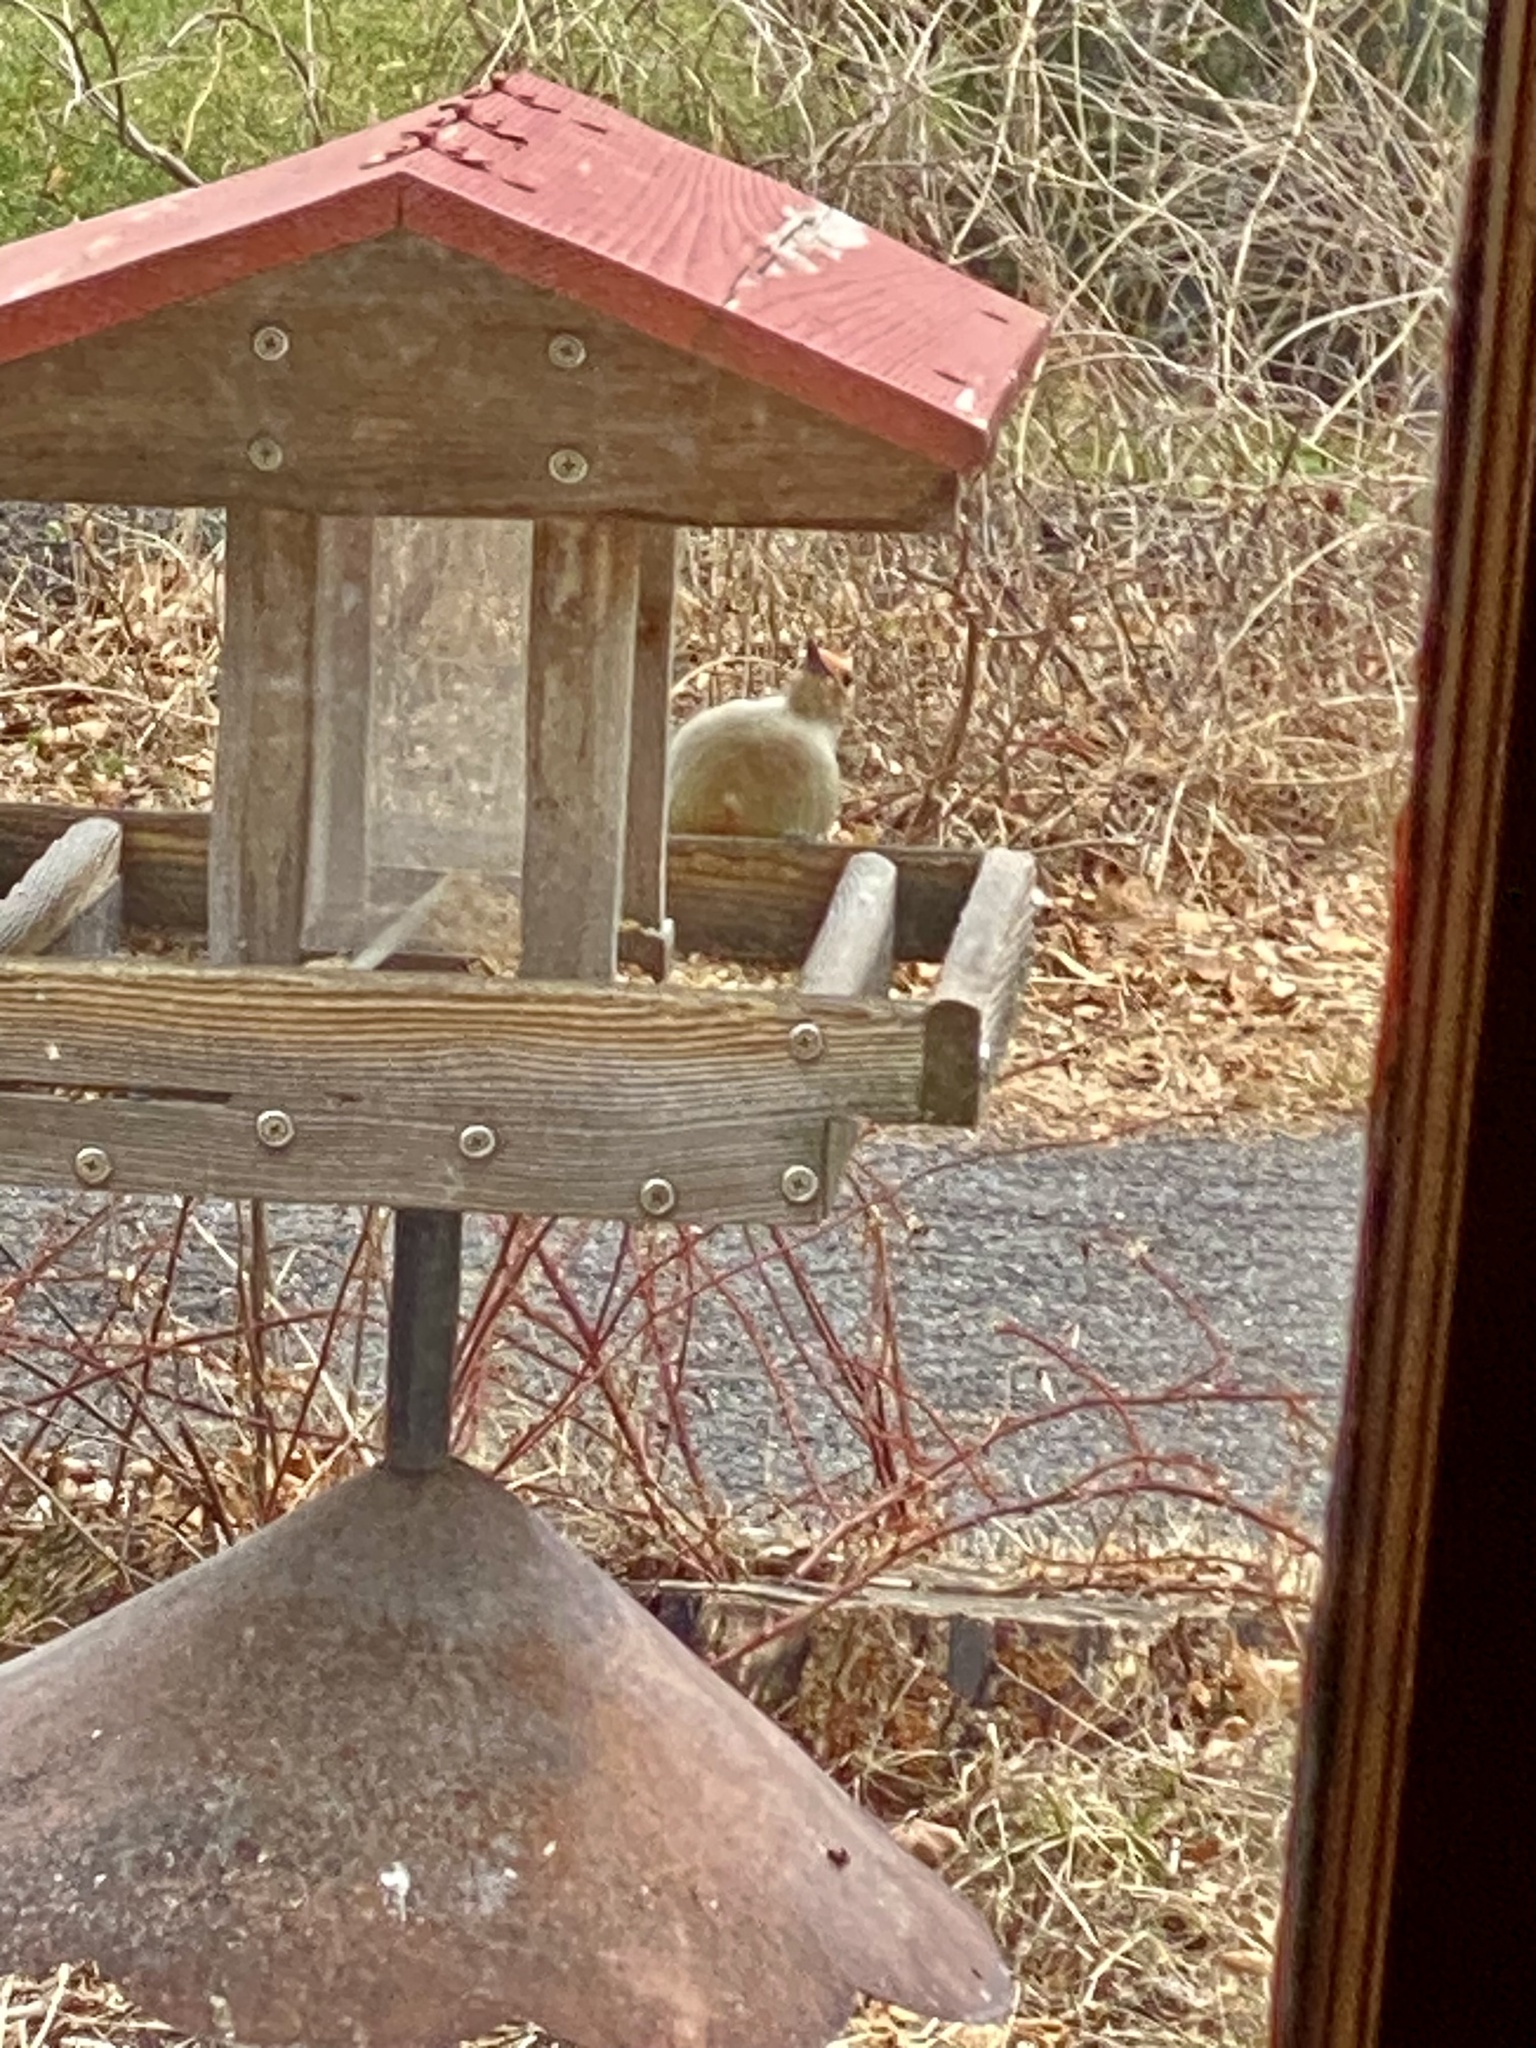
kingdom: Animalia
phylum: Chordata
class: Aves
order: Piciformes
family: Picidae
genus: Melanerpes
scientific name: Melanerpes carolinus
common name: Red-bellied woodpecker
